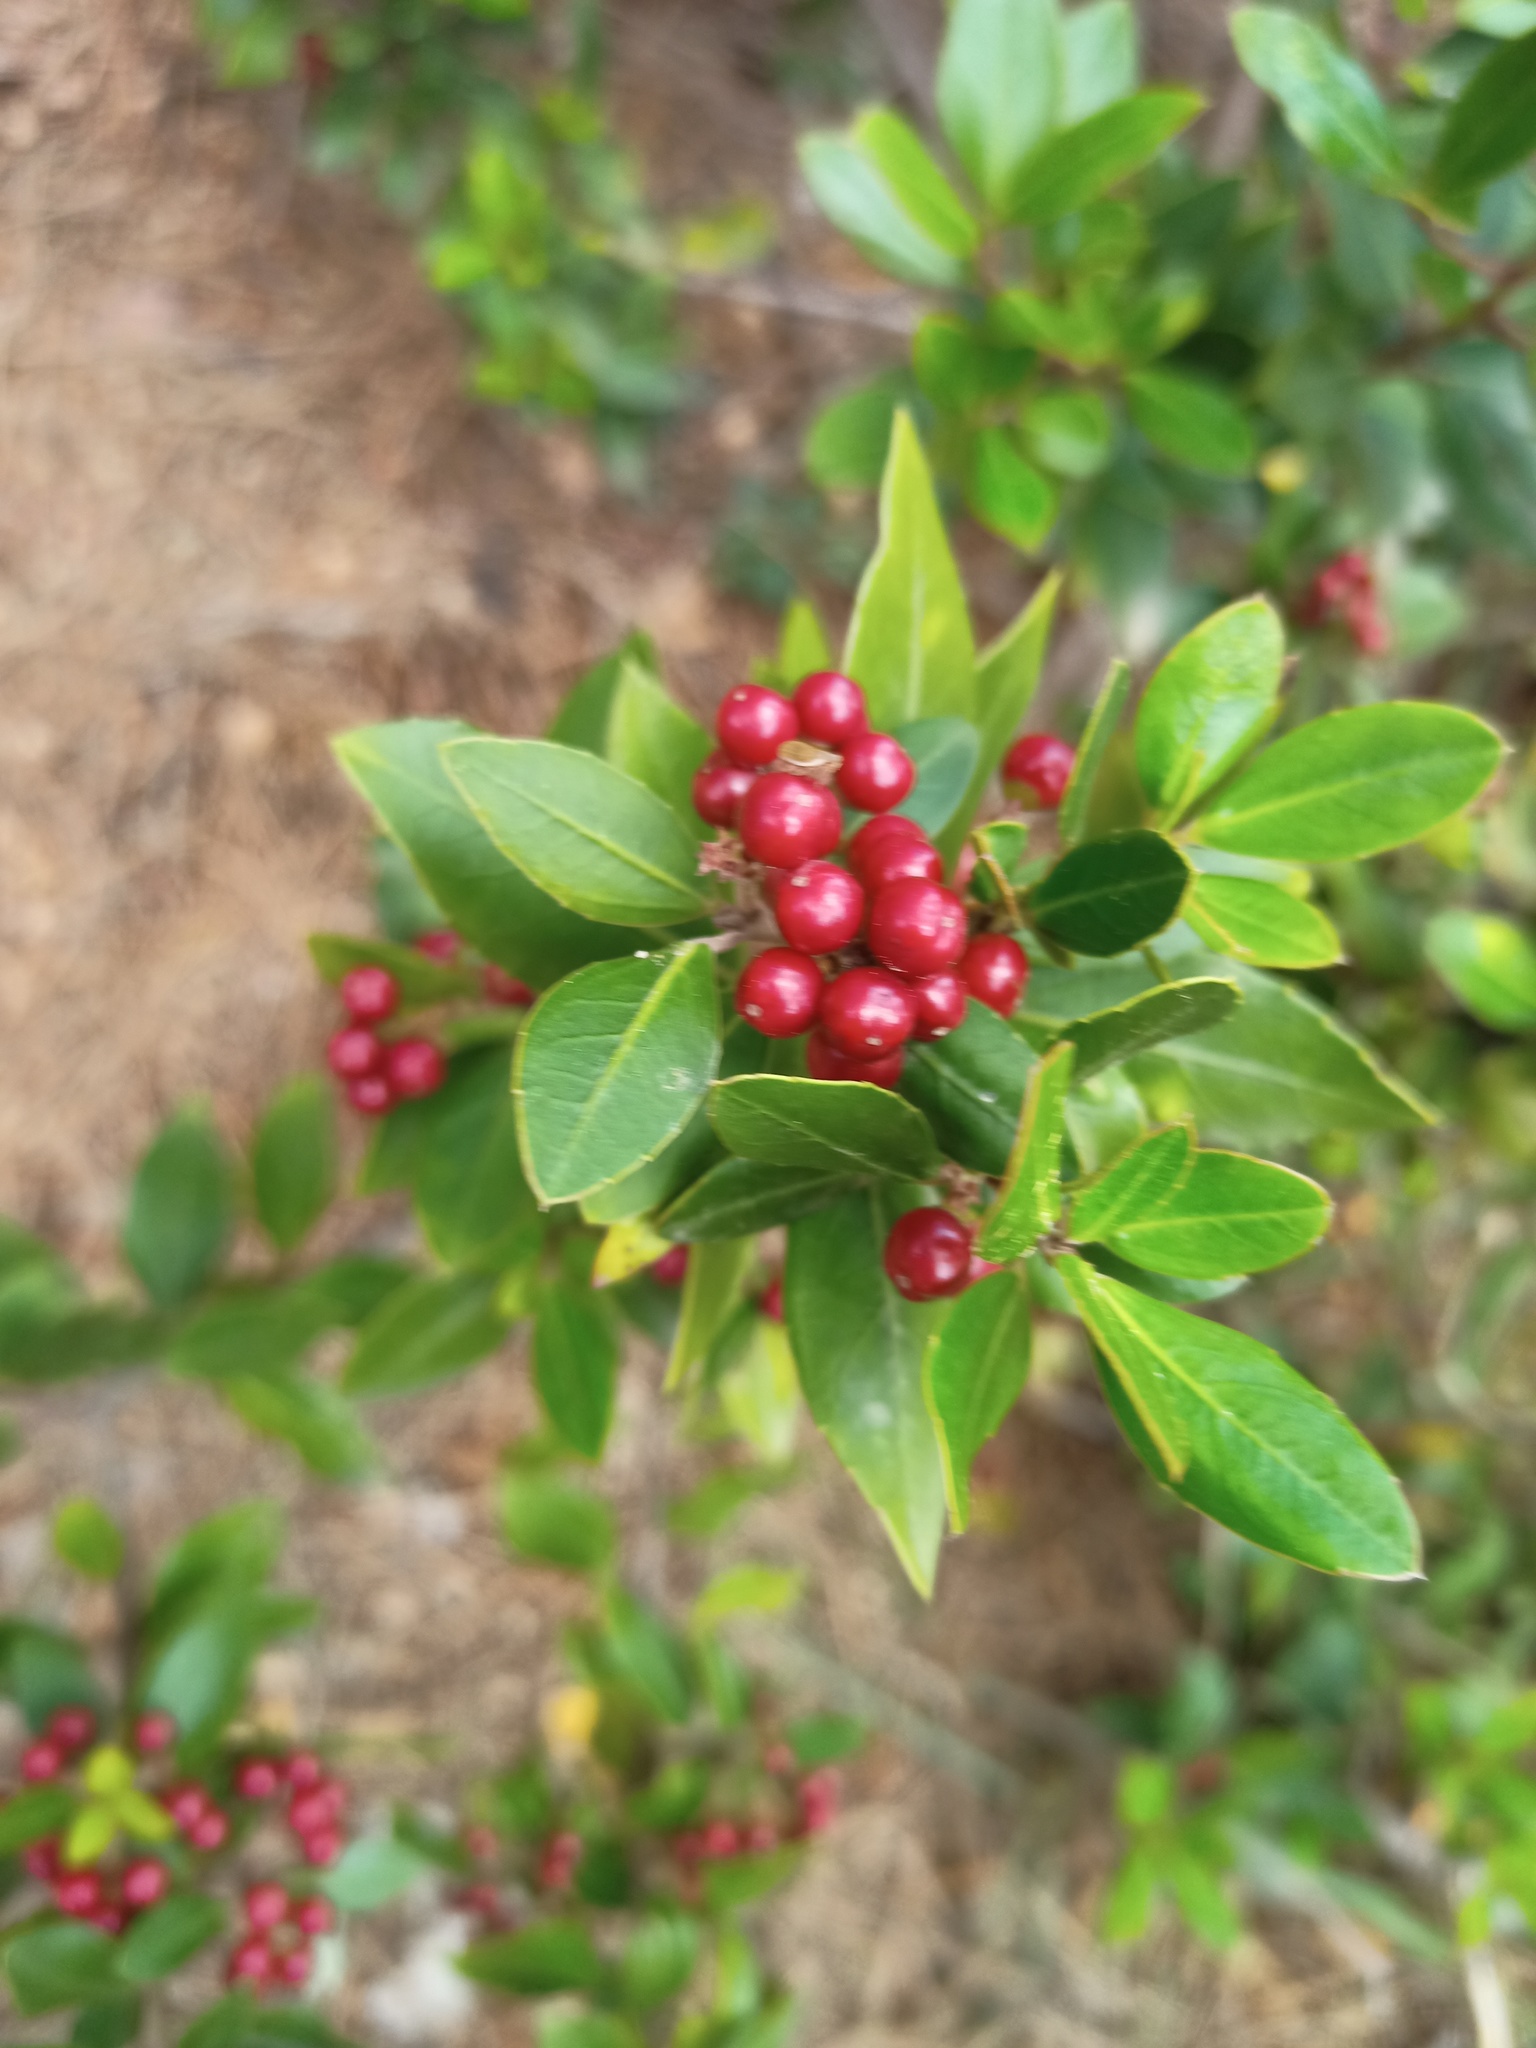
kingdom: Plantae
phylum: Tracheophyta
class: Magnoliopsida
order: Rosales
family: Rhamnaceae
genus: Rhamnus
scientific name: Rhamnus alaternus
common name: Mediterranean buckthorn
